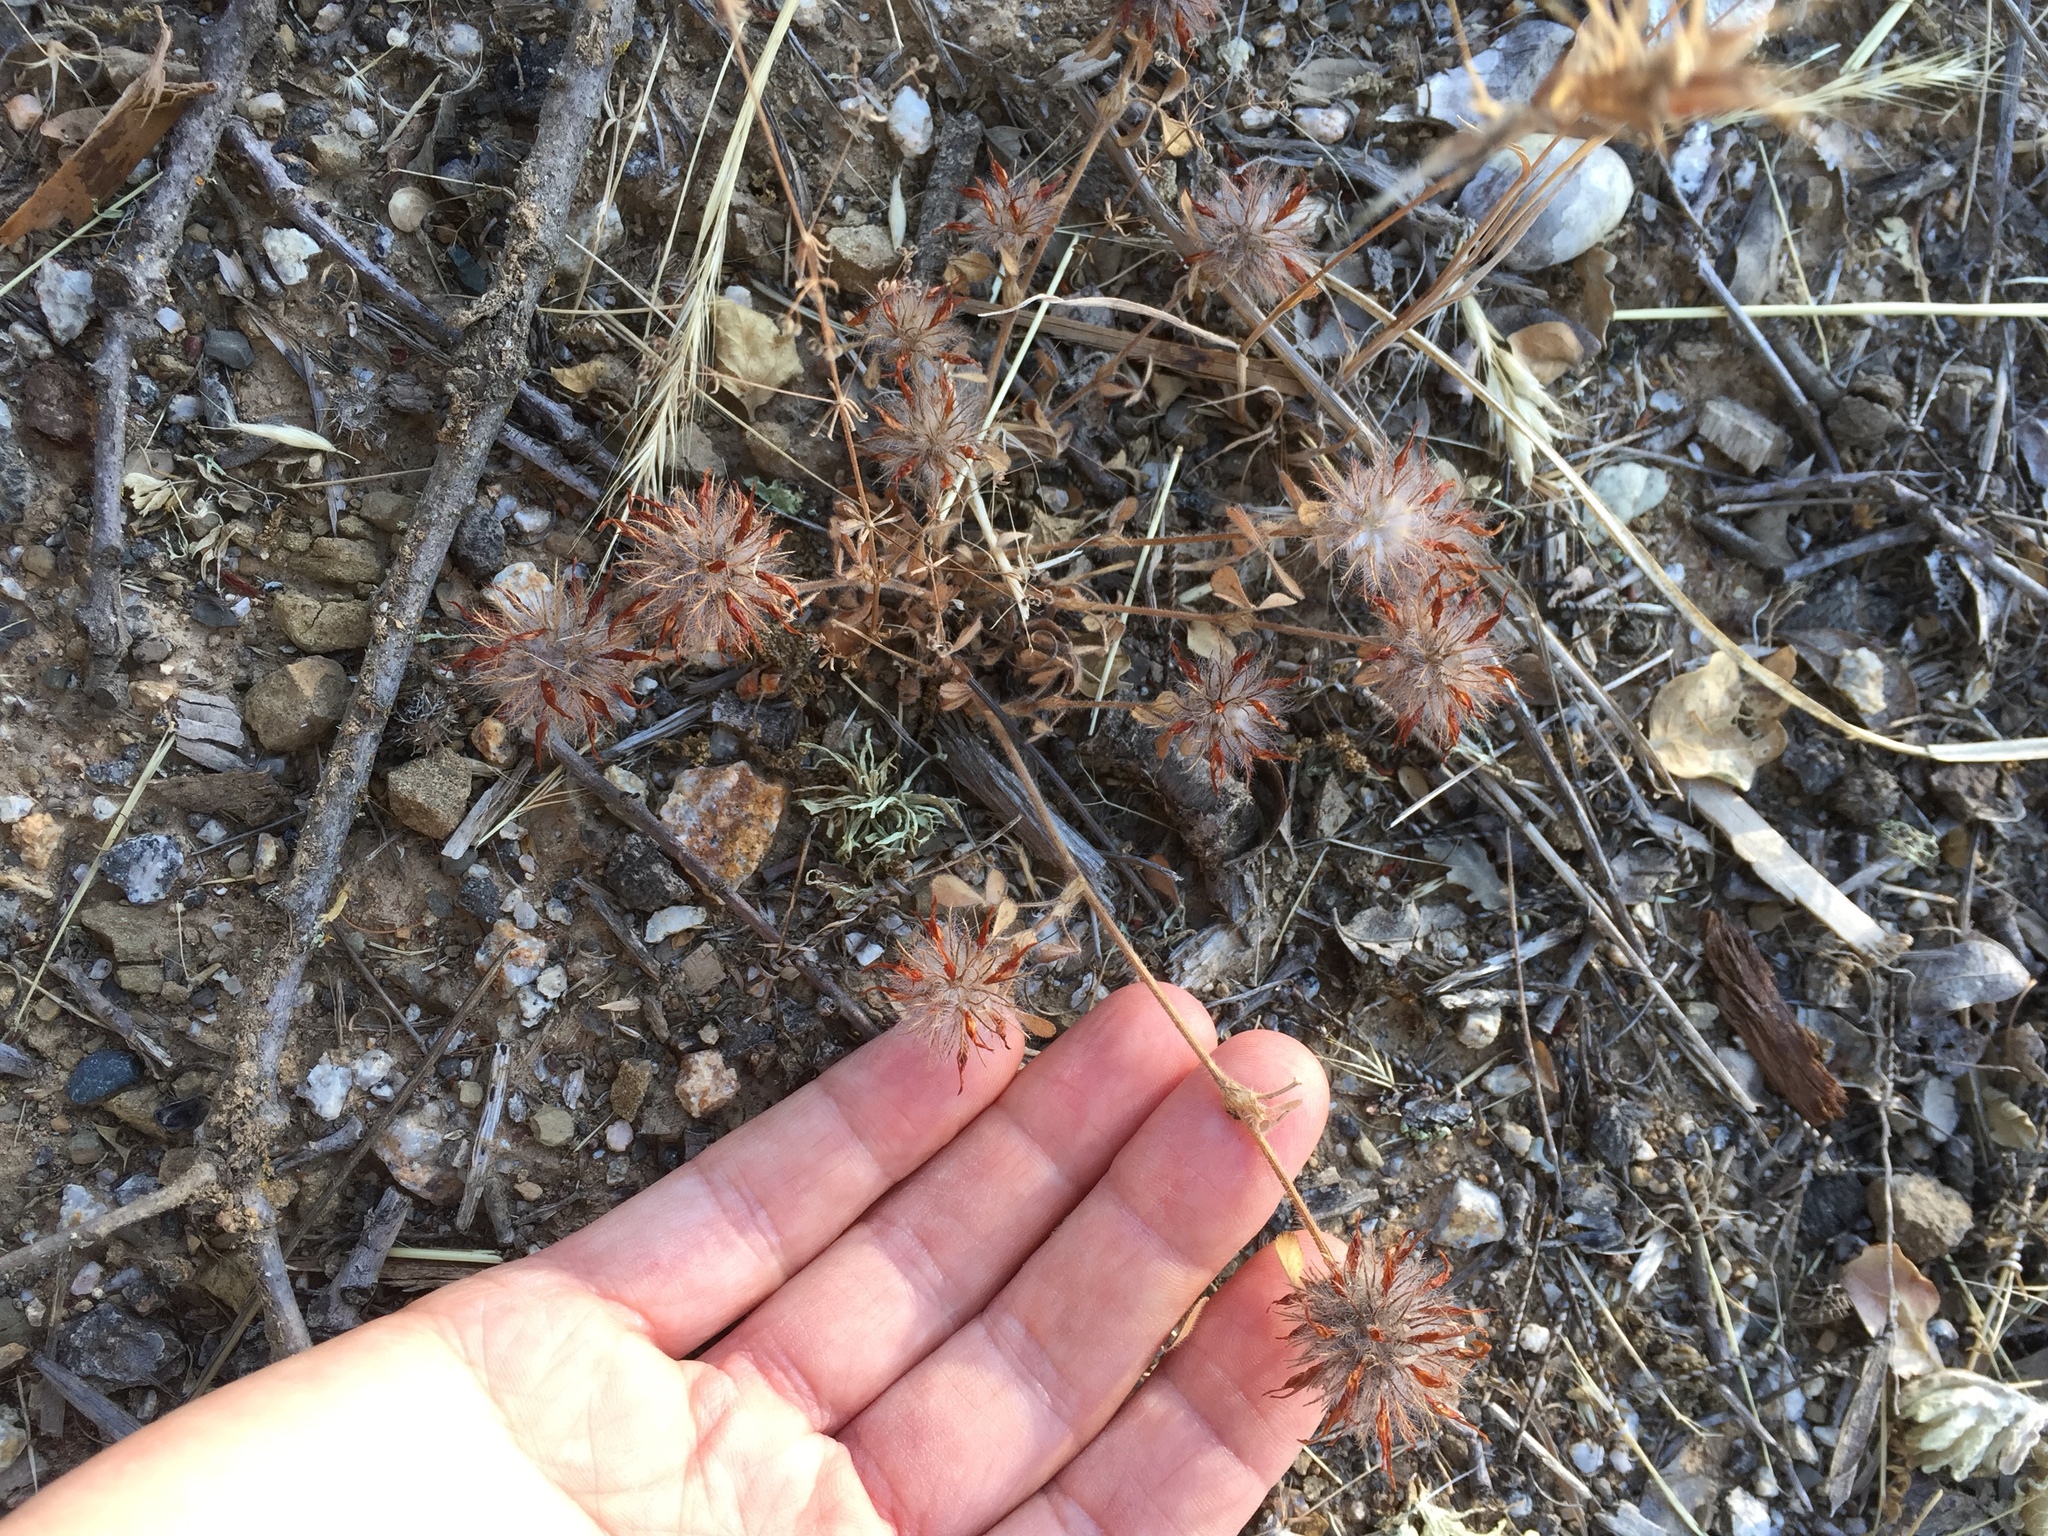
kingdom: Plantae
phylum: Tracheophyta
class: Magnoliopsida
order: Fabales
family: Fabaceae
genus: Trifolium
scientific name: Trifolium hirtum
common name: Rose clover
